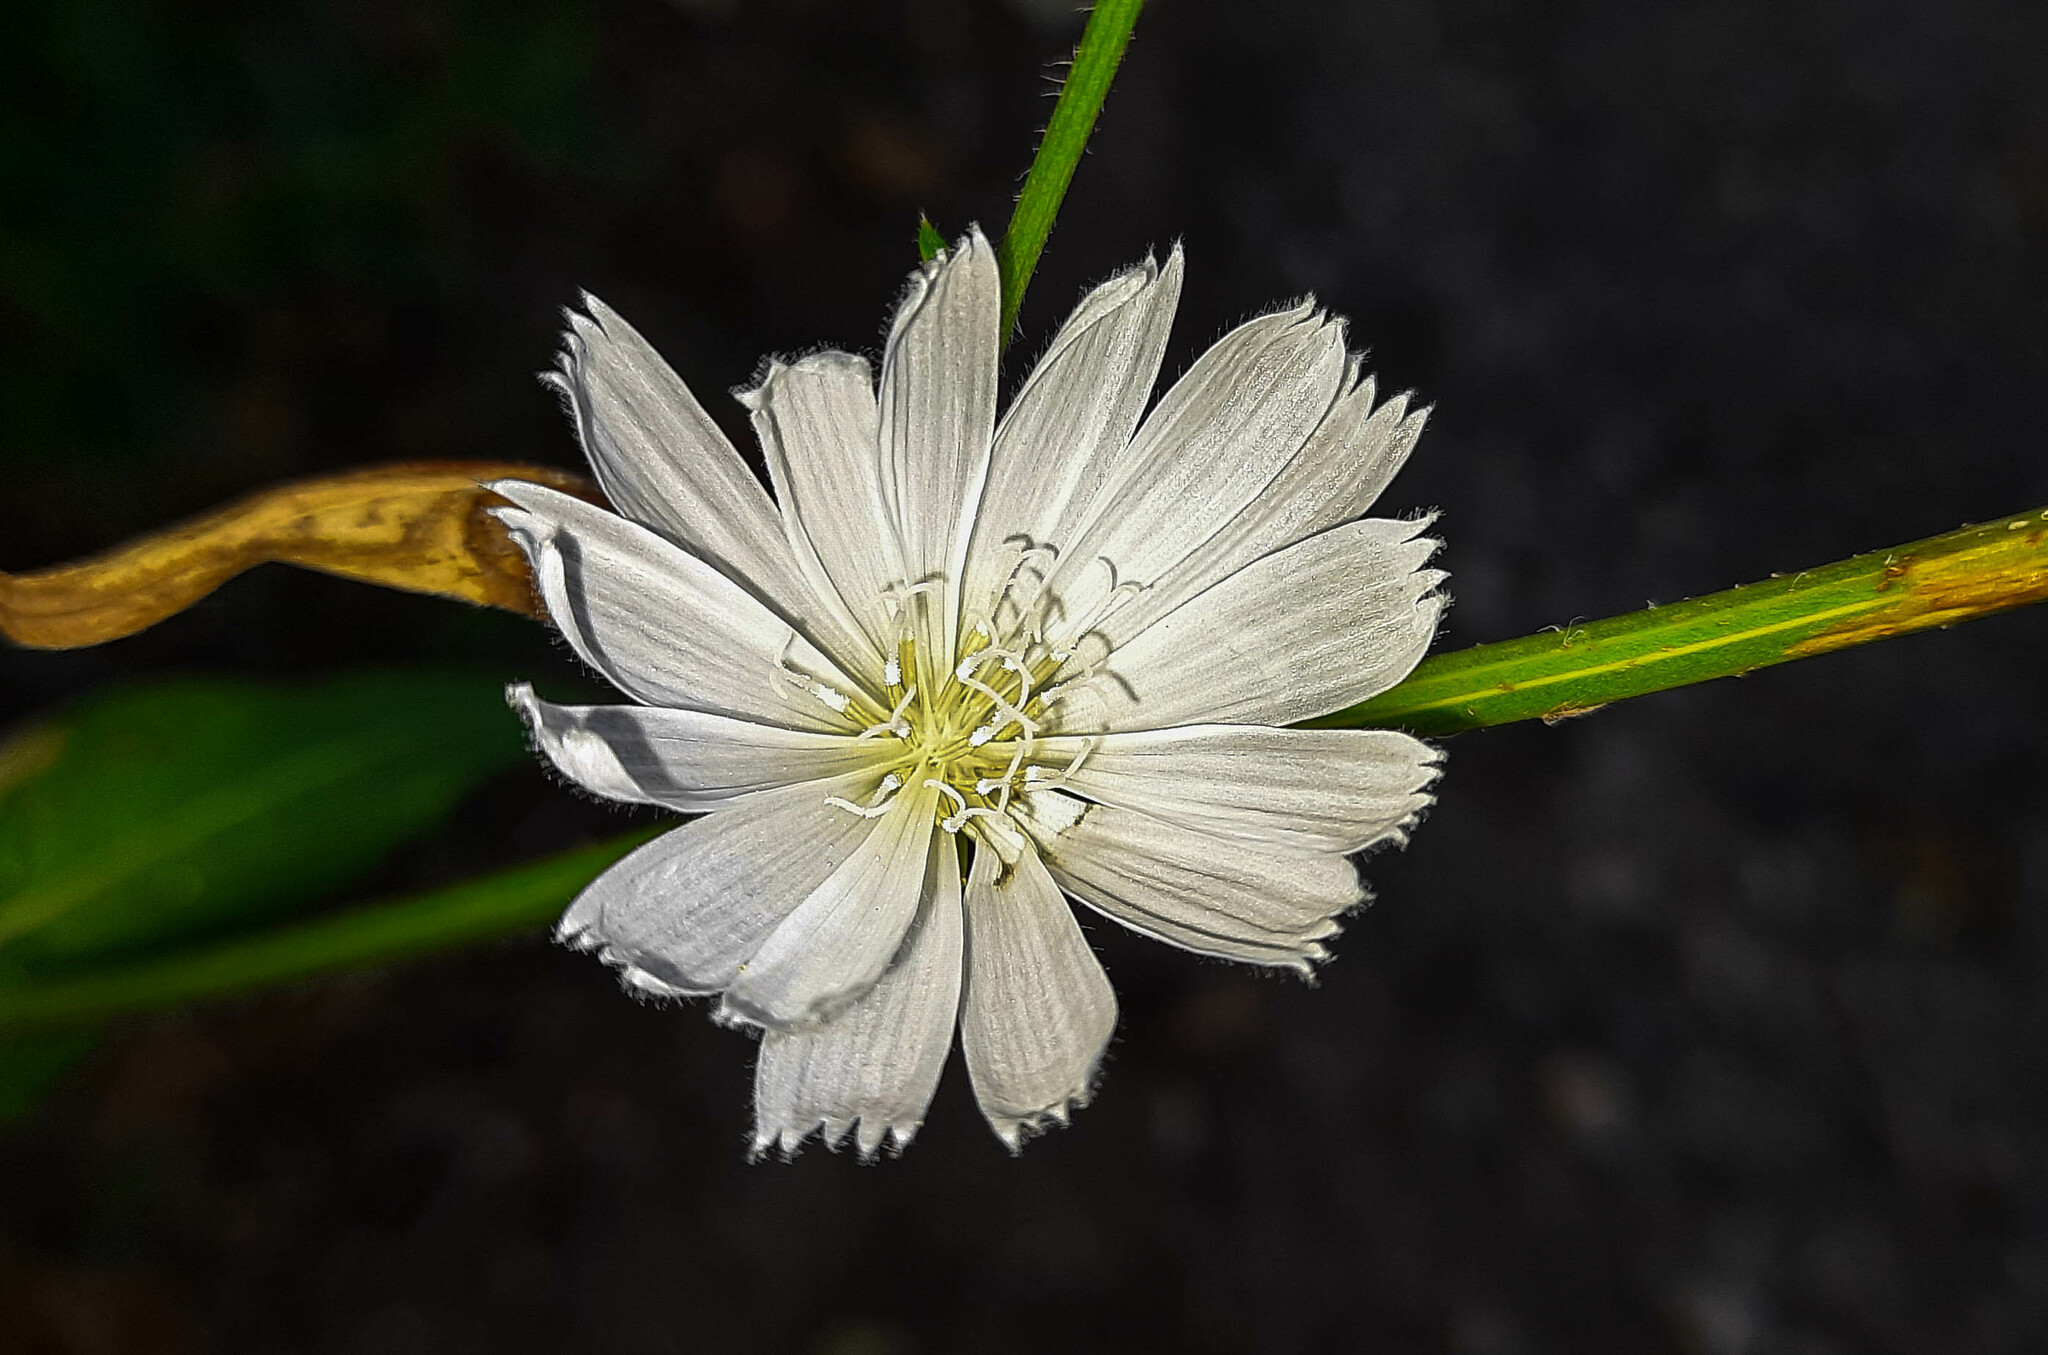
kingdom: Plantae
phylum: Tracheophyta
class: Magnoliopsida
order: Asterales
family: Asteraceae
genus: Cichorium
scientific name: Cichorium intybus
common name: Chicory
